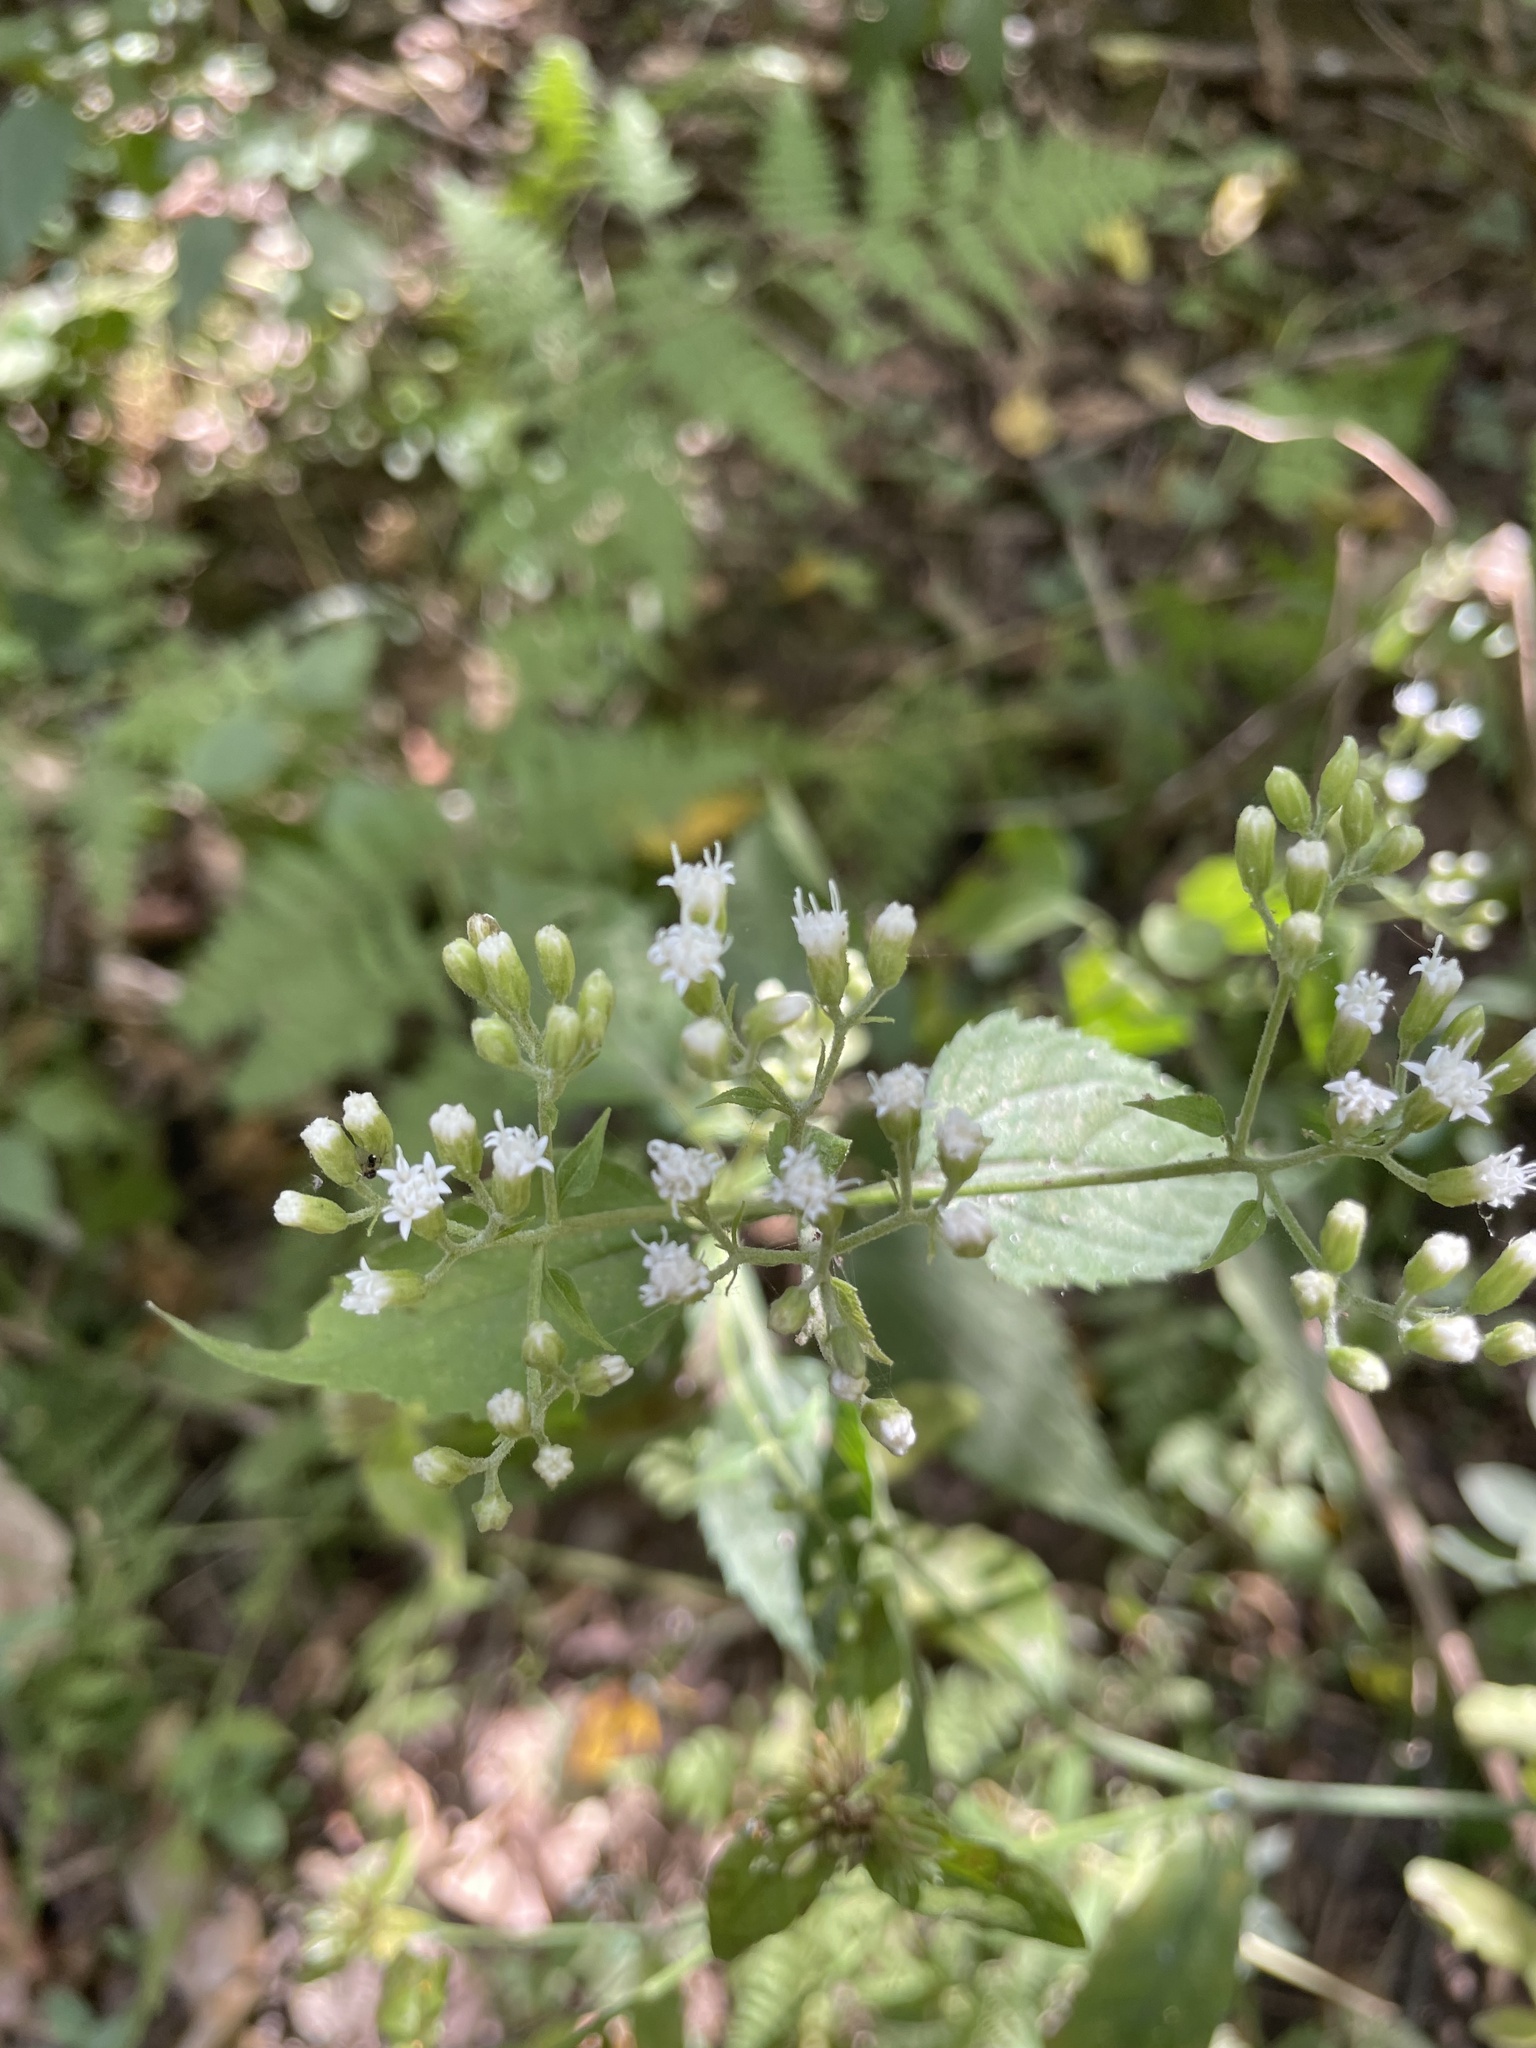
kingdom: Plantae
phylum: Tracheophyta
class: Magnoliopsida
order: Asterales
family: Asteraceae
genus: Ageratina
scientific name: Ageratina altissima
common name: White snakeroot
